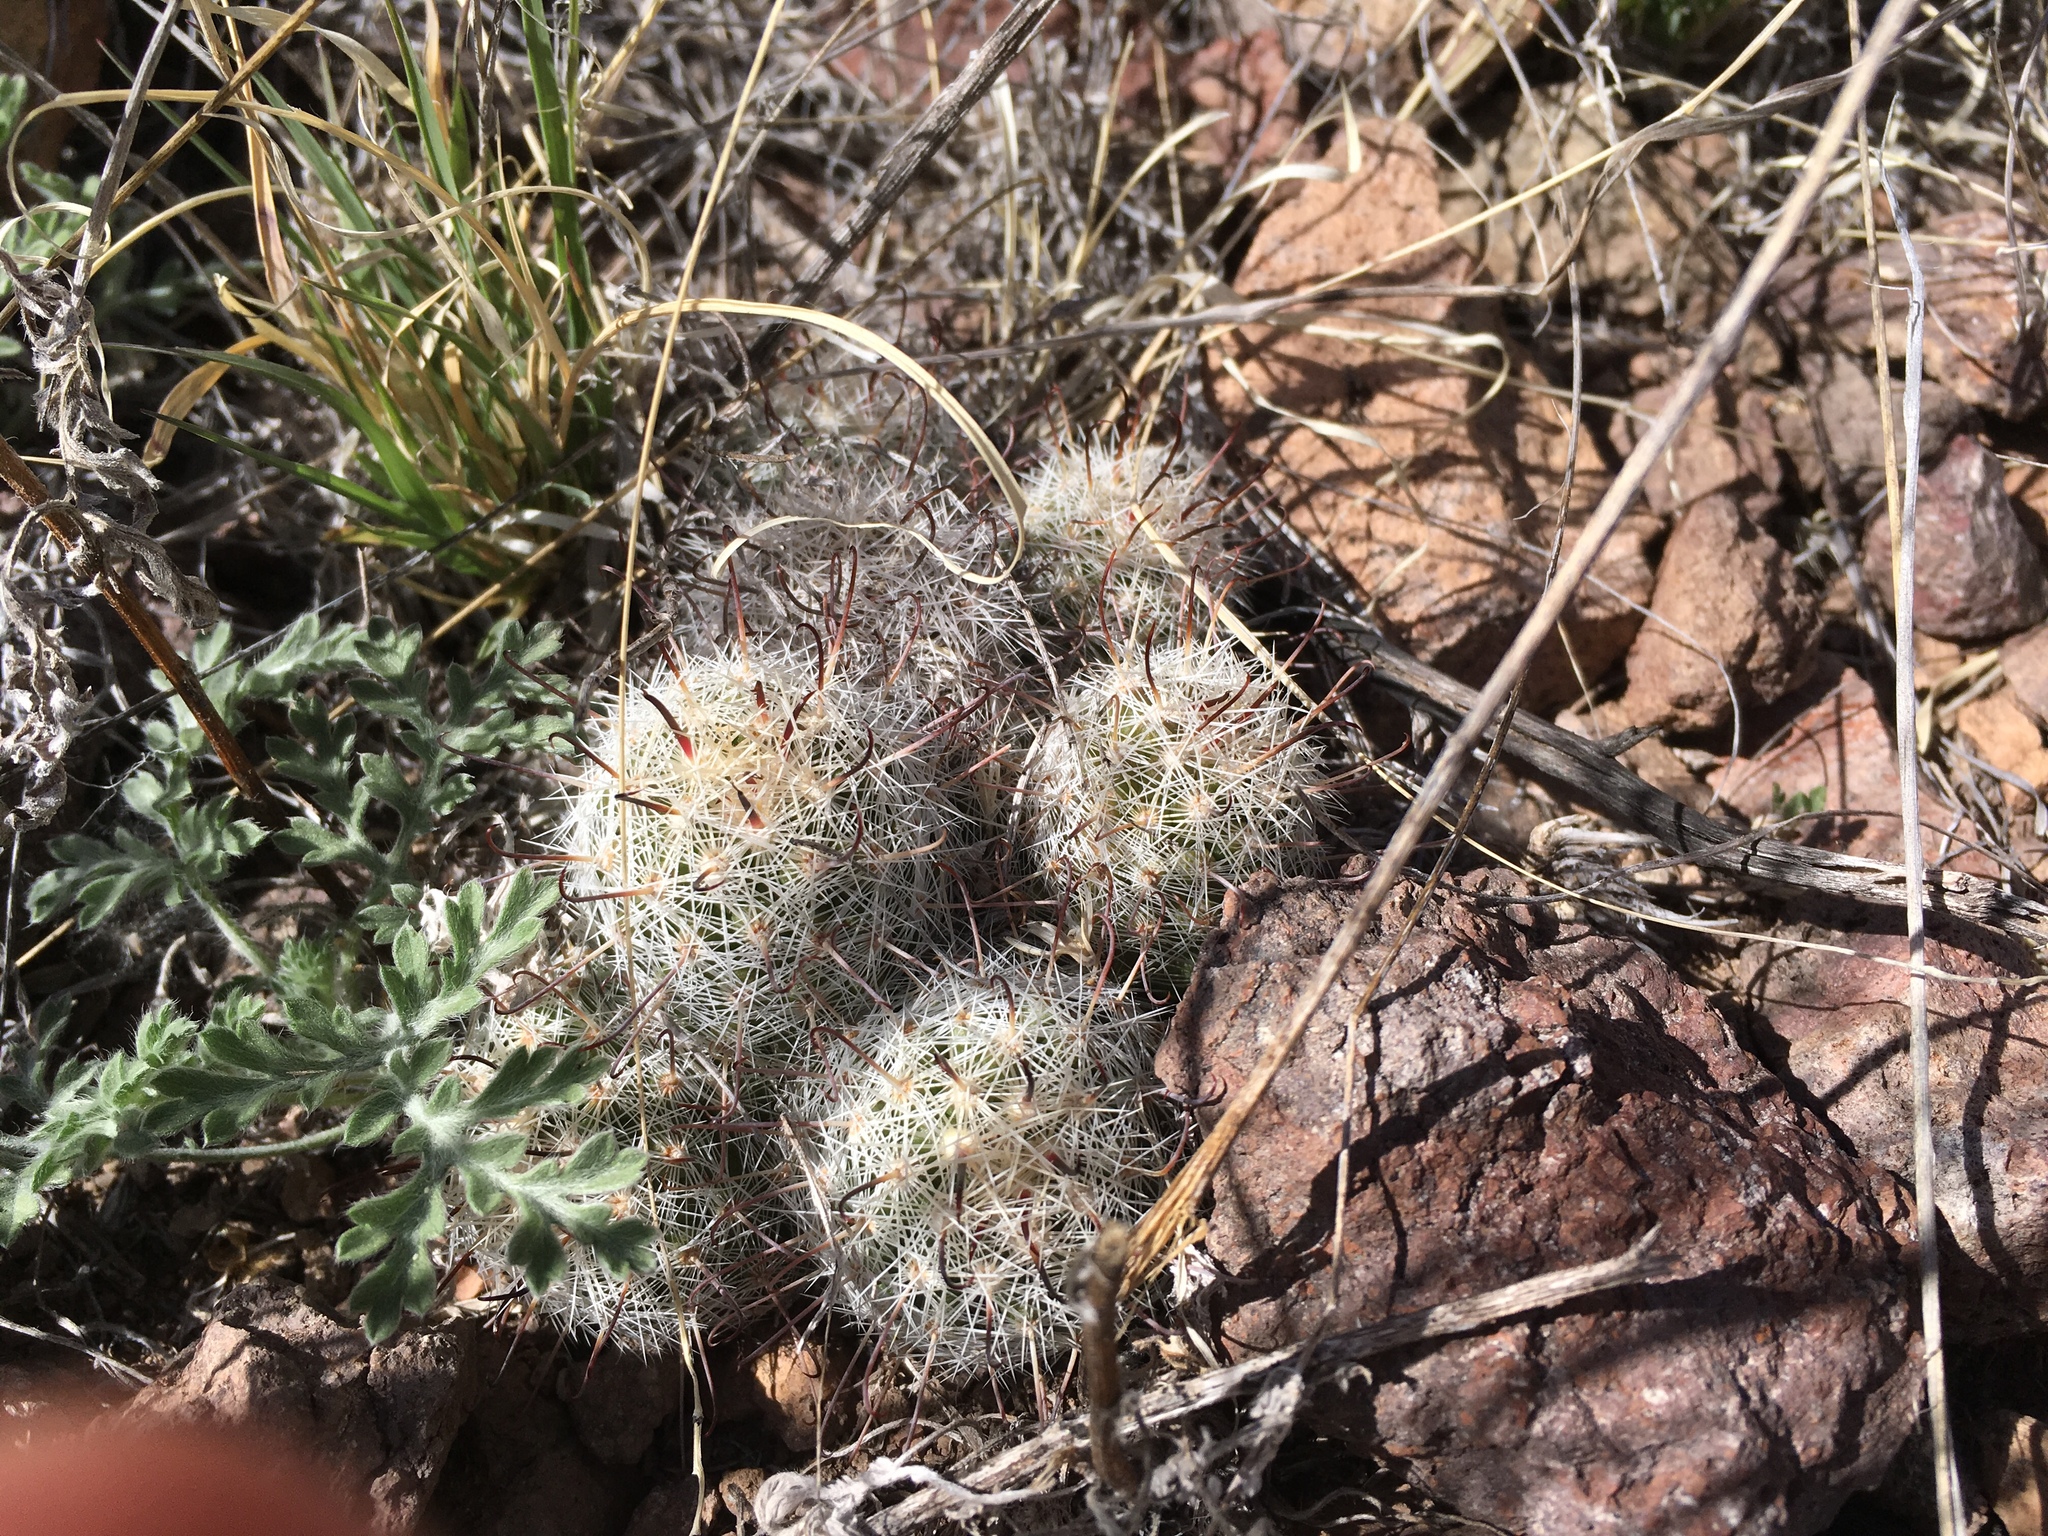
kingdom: Plantae
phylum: Tracheophyta
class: Magnoliopsida
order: Caryophyllales
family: Cactaceae
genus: Cochemiea
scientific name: Cochemiea grahamii
